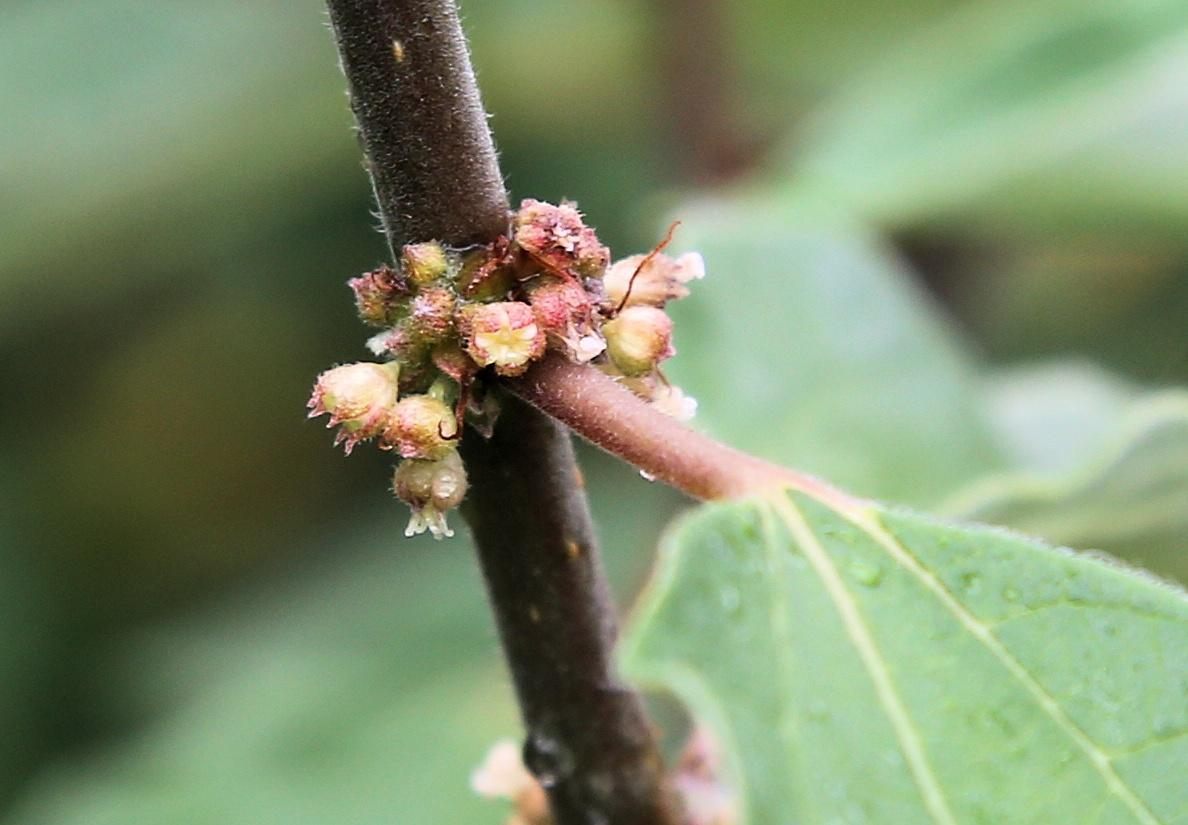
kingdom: Plantae
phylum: Tracheophyta
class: Magnoliopsida
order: Rosales
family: Urticaceae
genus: Pouzolzia
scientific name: Pouzolzia mixta
